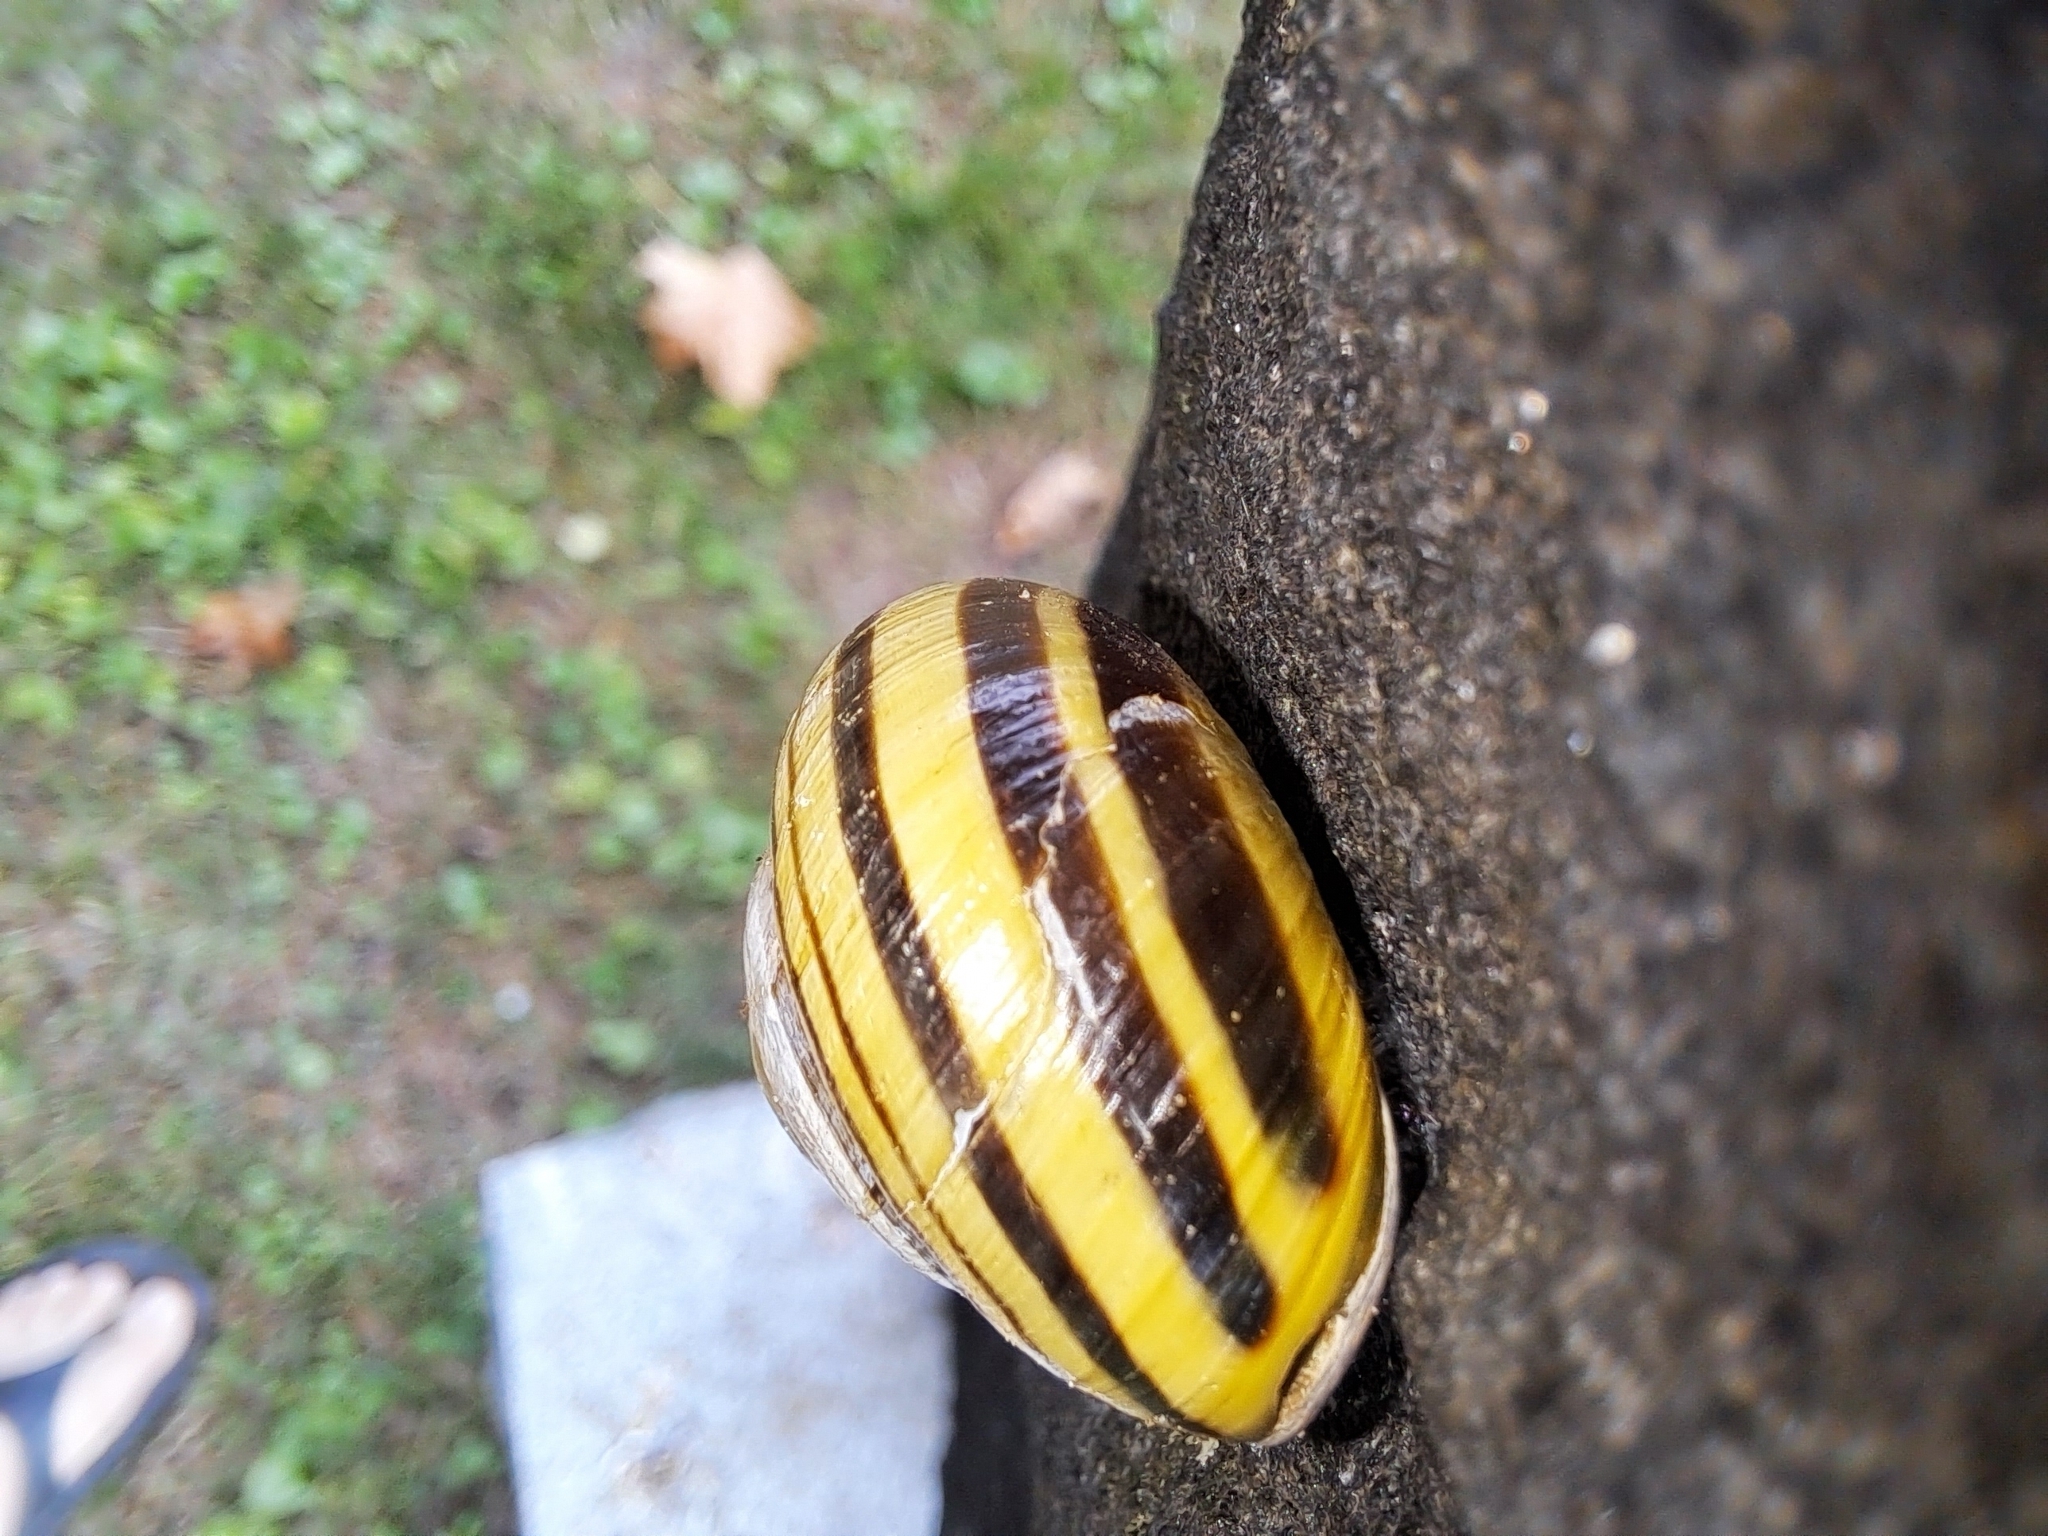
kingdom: Animalia
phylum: Mollusca
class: Gastropoda
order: Stylommatophora
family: Helicidae
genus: Cepaea
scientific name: Cepaea nemoralis
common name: Grovesnail
